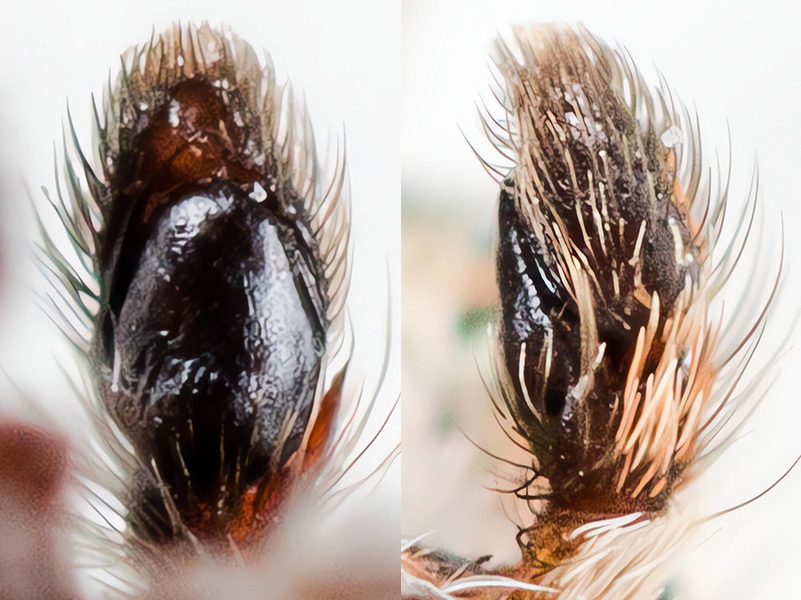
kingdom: Animalia
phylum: Arthropoda
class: Arachnida
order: Araneae
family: Salticidae
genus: Attulus
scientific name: Attulus avocator
